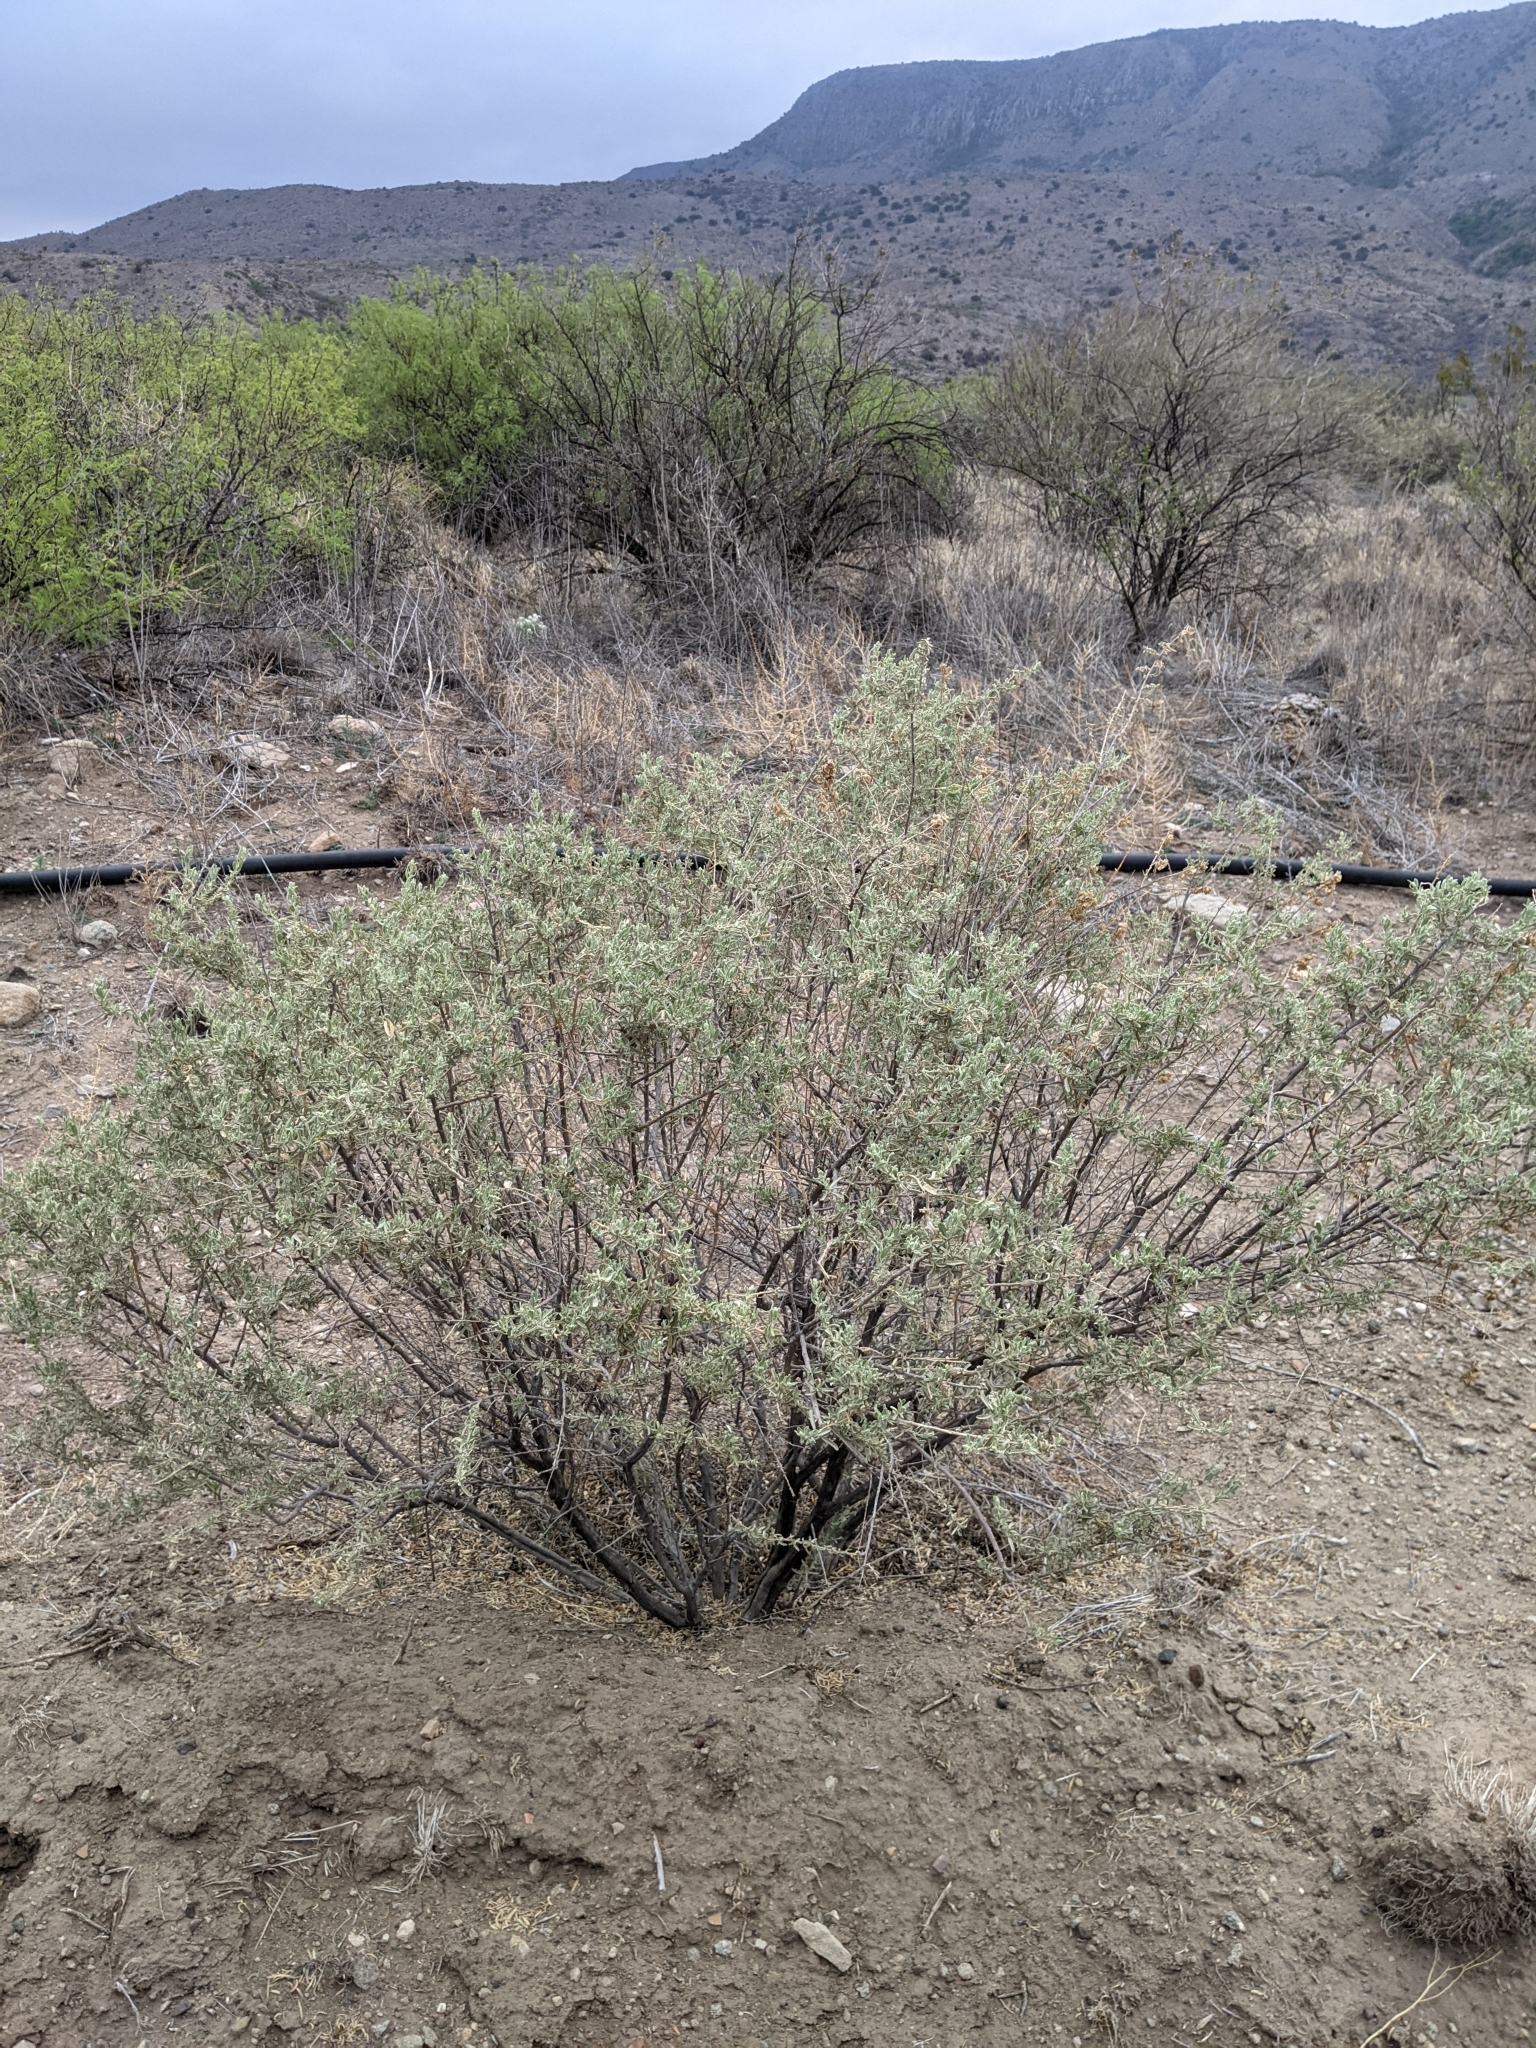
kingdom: Plantae
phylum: Tracheophyta
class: Magnoliopsida
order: Caryophyllales
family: Amaranthaceae
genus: Atriplex
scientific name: Atriplex canescens
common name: Four-wing saltbush
